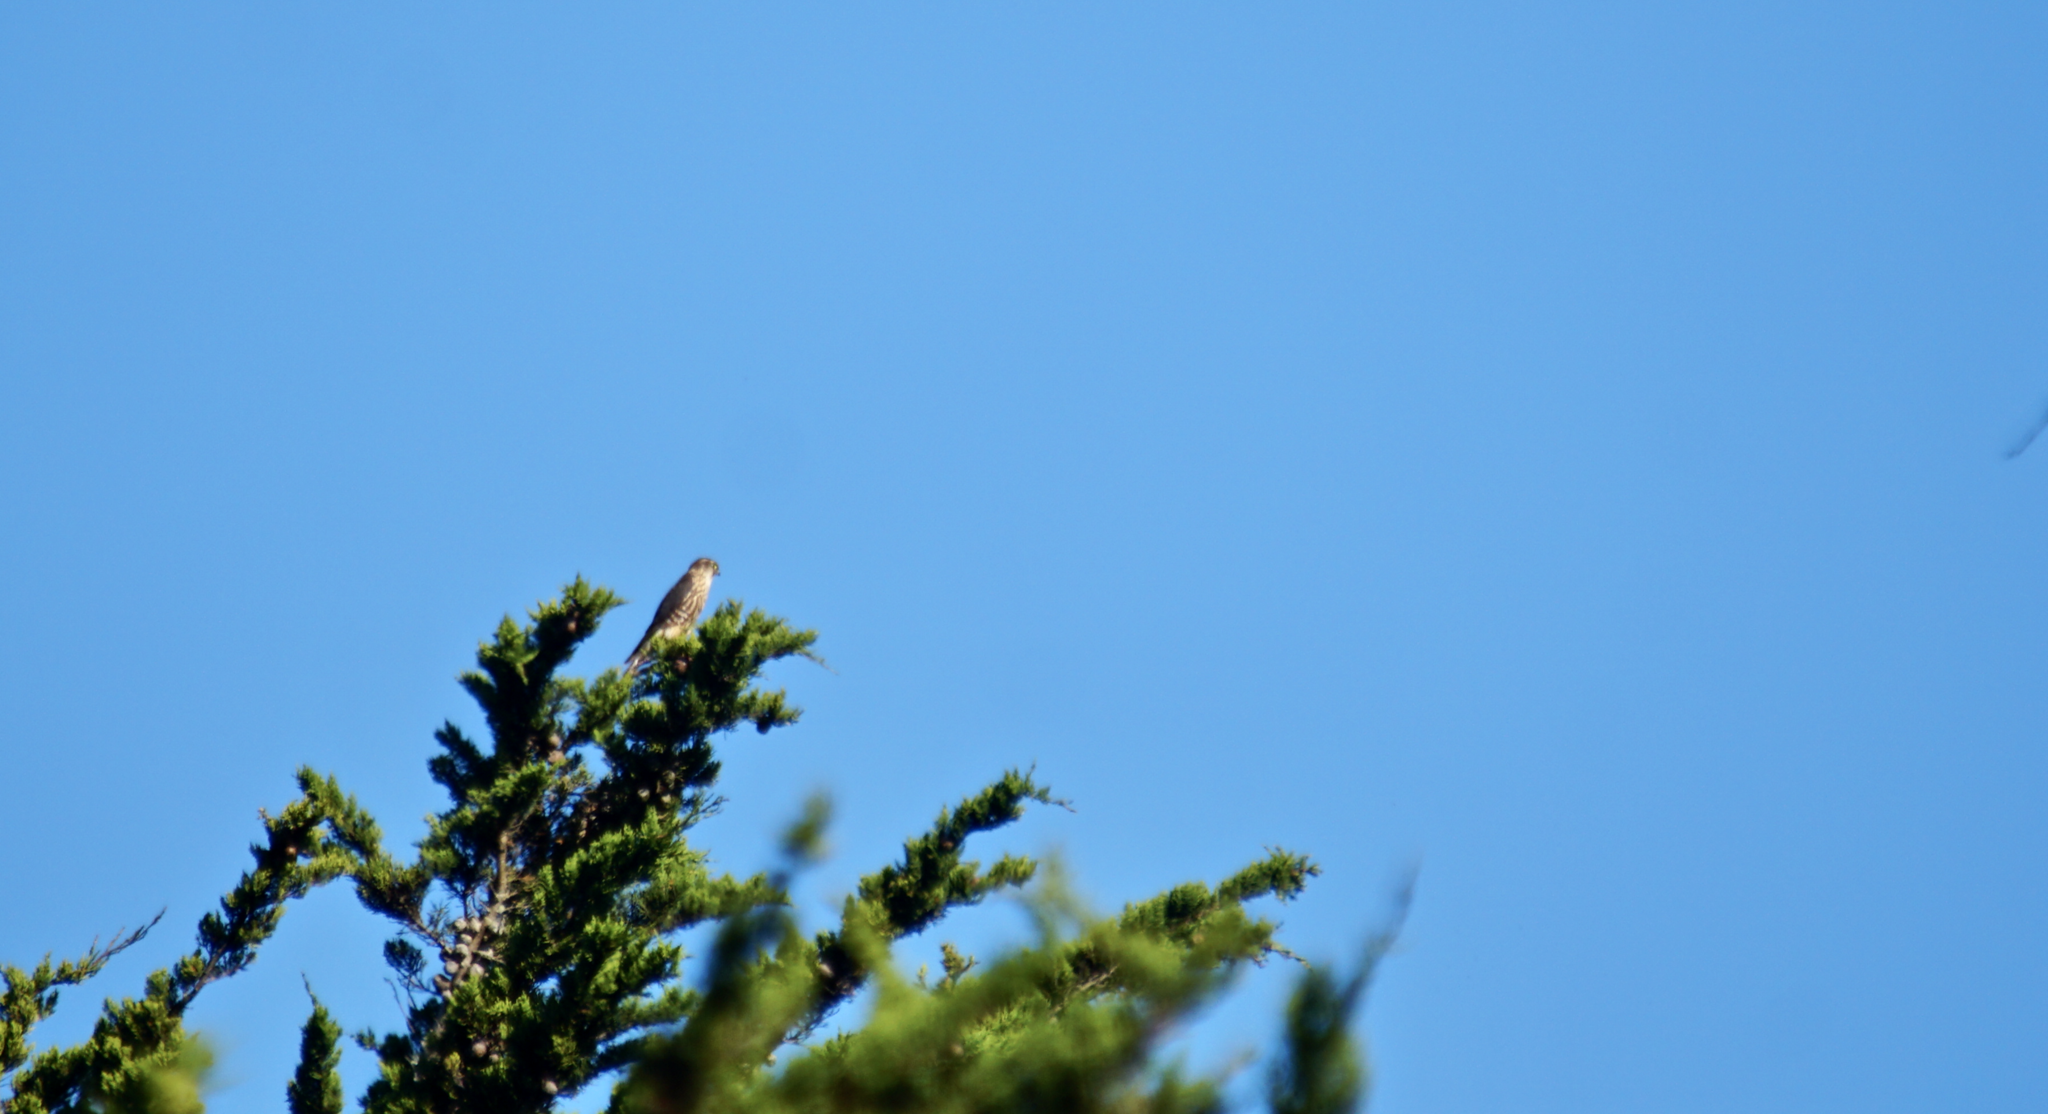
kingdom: Animalia
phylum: Chordata
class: Aves
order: Falconiformes
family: Falconidae
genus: Falco
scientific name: Falco columbarius
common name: Merlin
